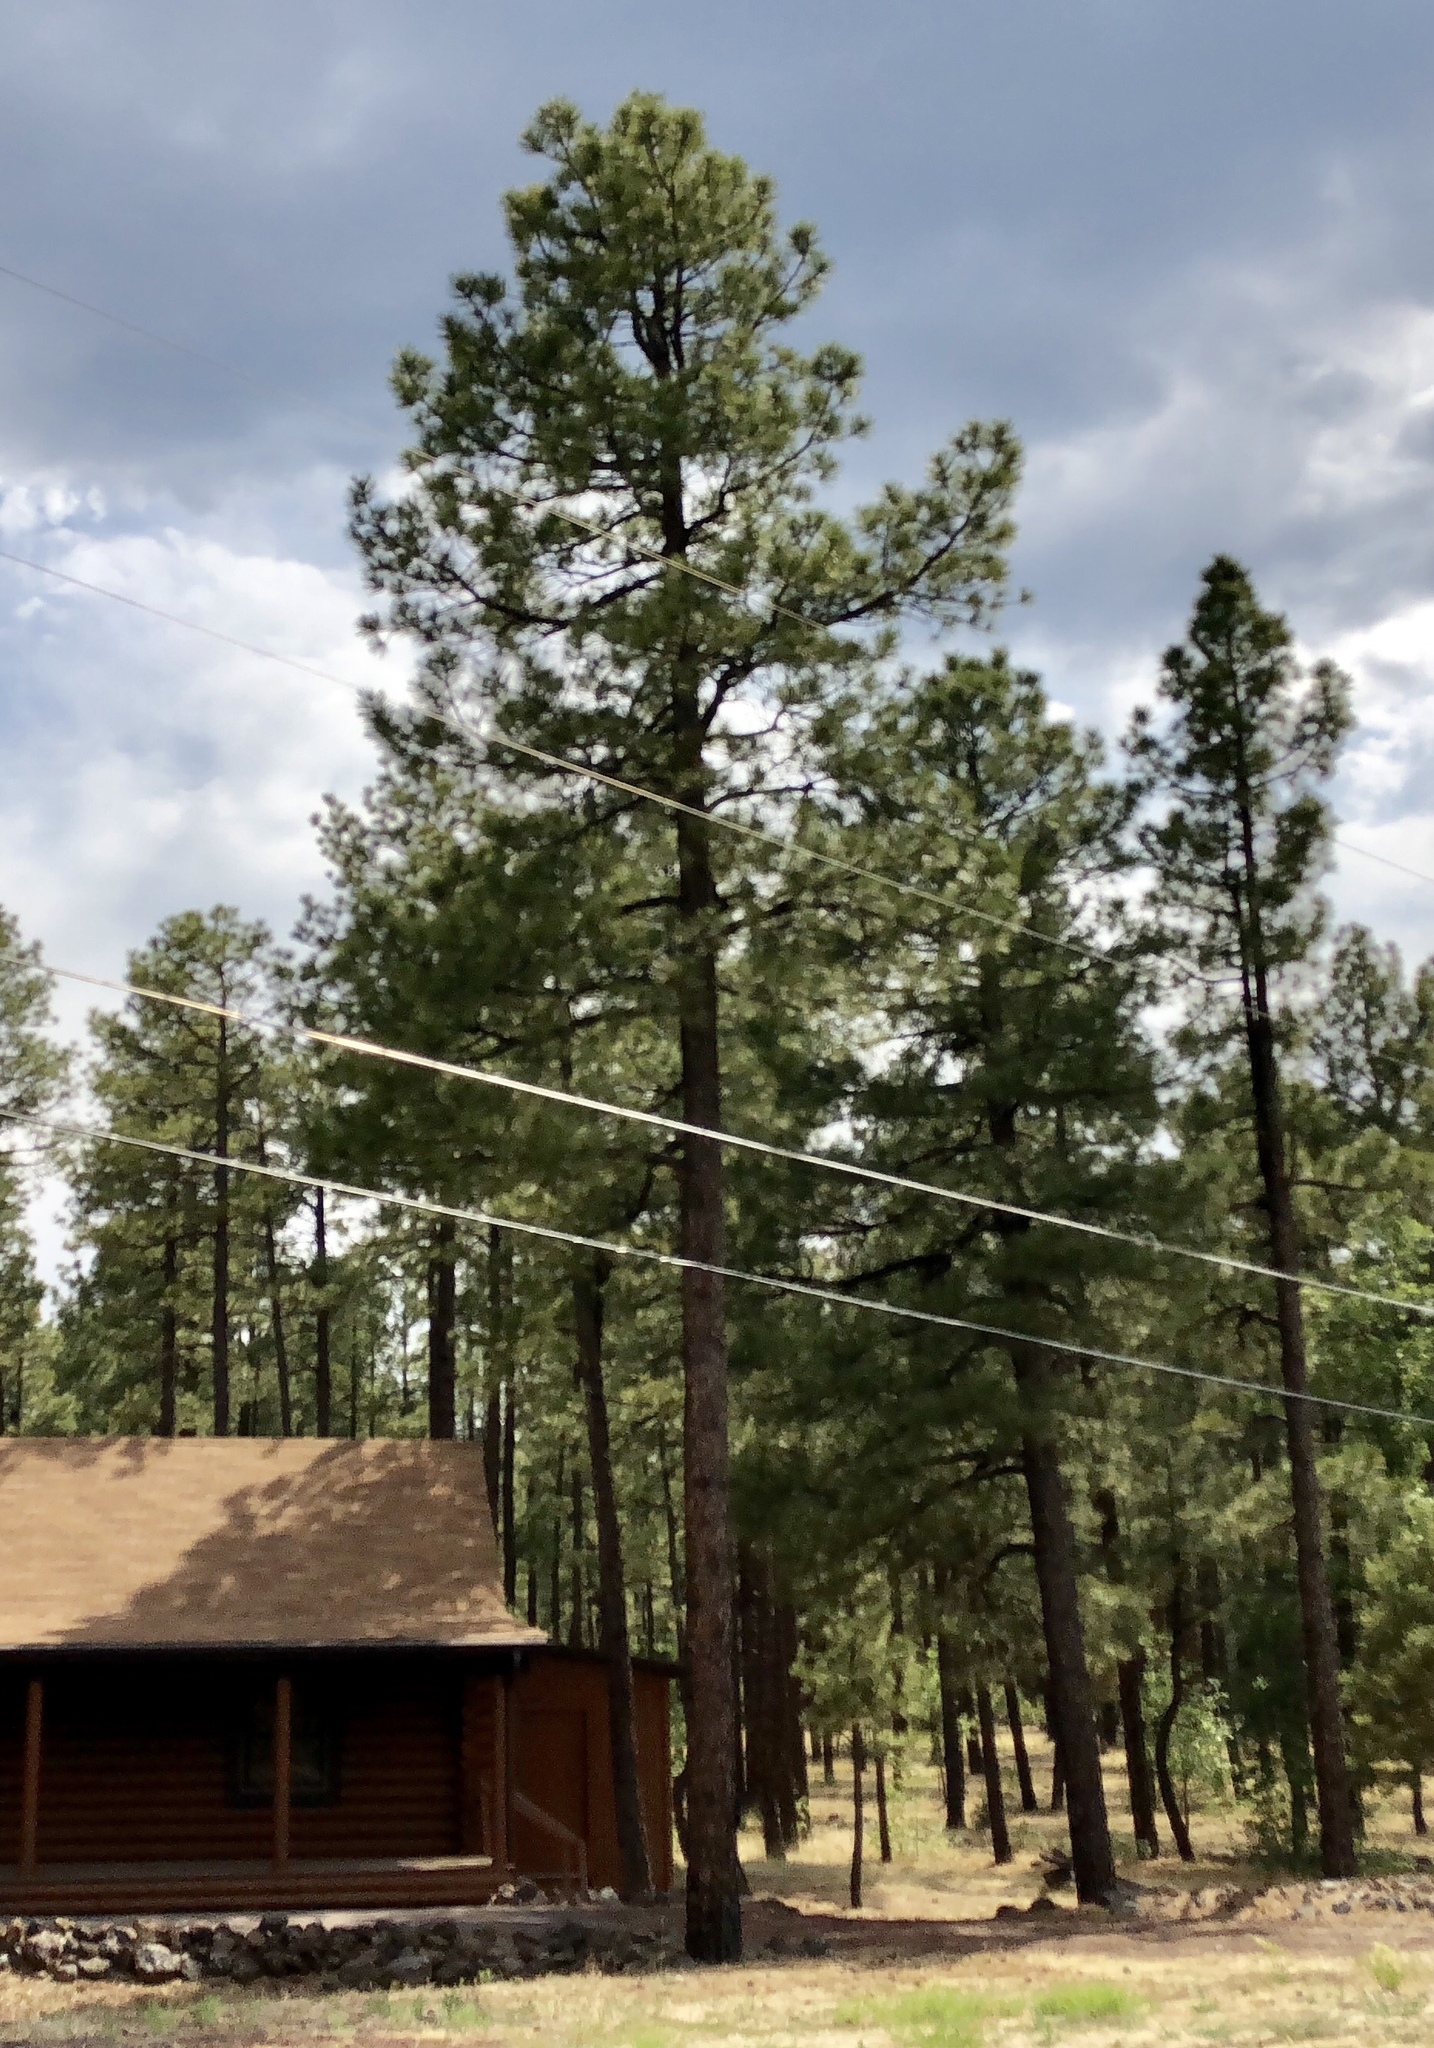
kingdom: Plantae
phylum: Tracheophyta
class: Pinopsida
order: Pinales
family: Pinaceae
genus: Pinus
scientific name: Pinus ponderosa
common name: Western yellow-pine
